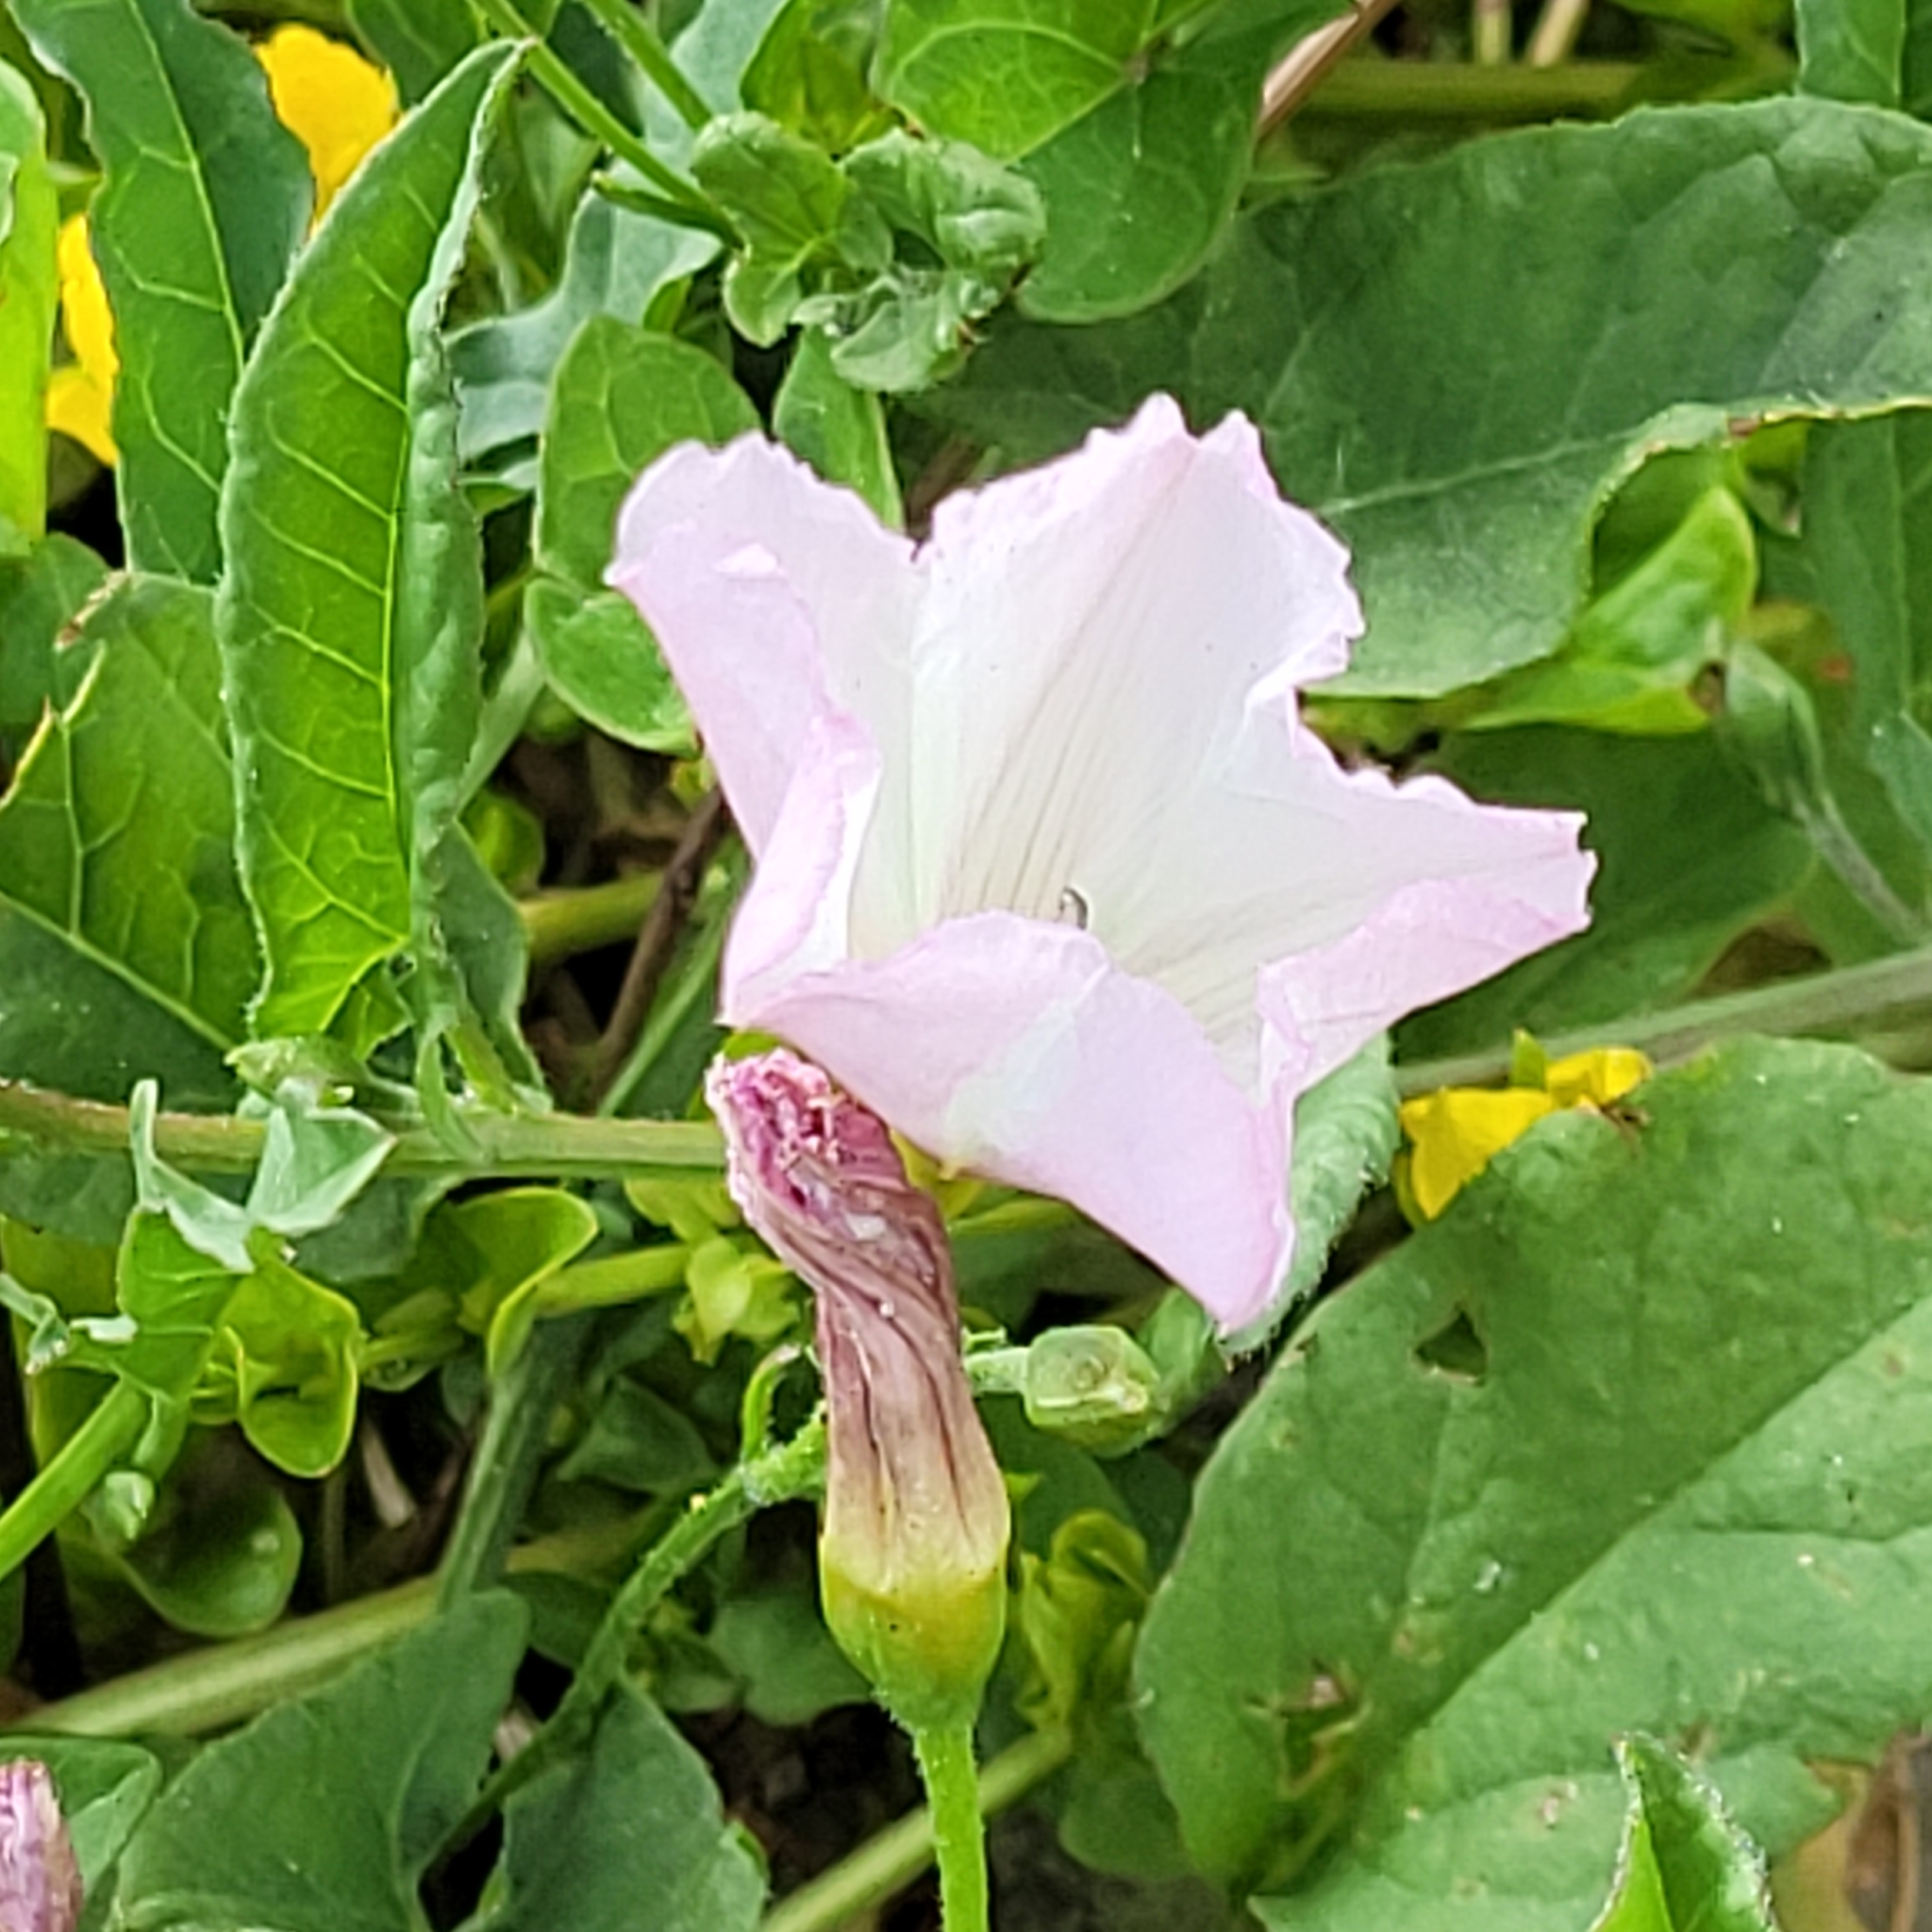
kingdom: Plantae
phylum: Tracheophyta
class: Magnoliopsida
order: Solanales
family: Convolvulaceae
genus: Convolvulus
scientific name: Convolvulus arvensis
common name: Field bindweed
